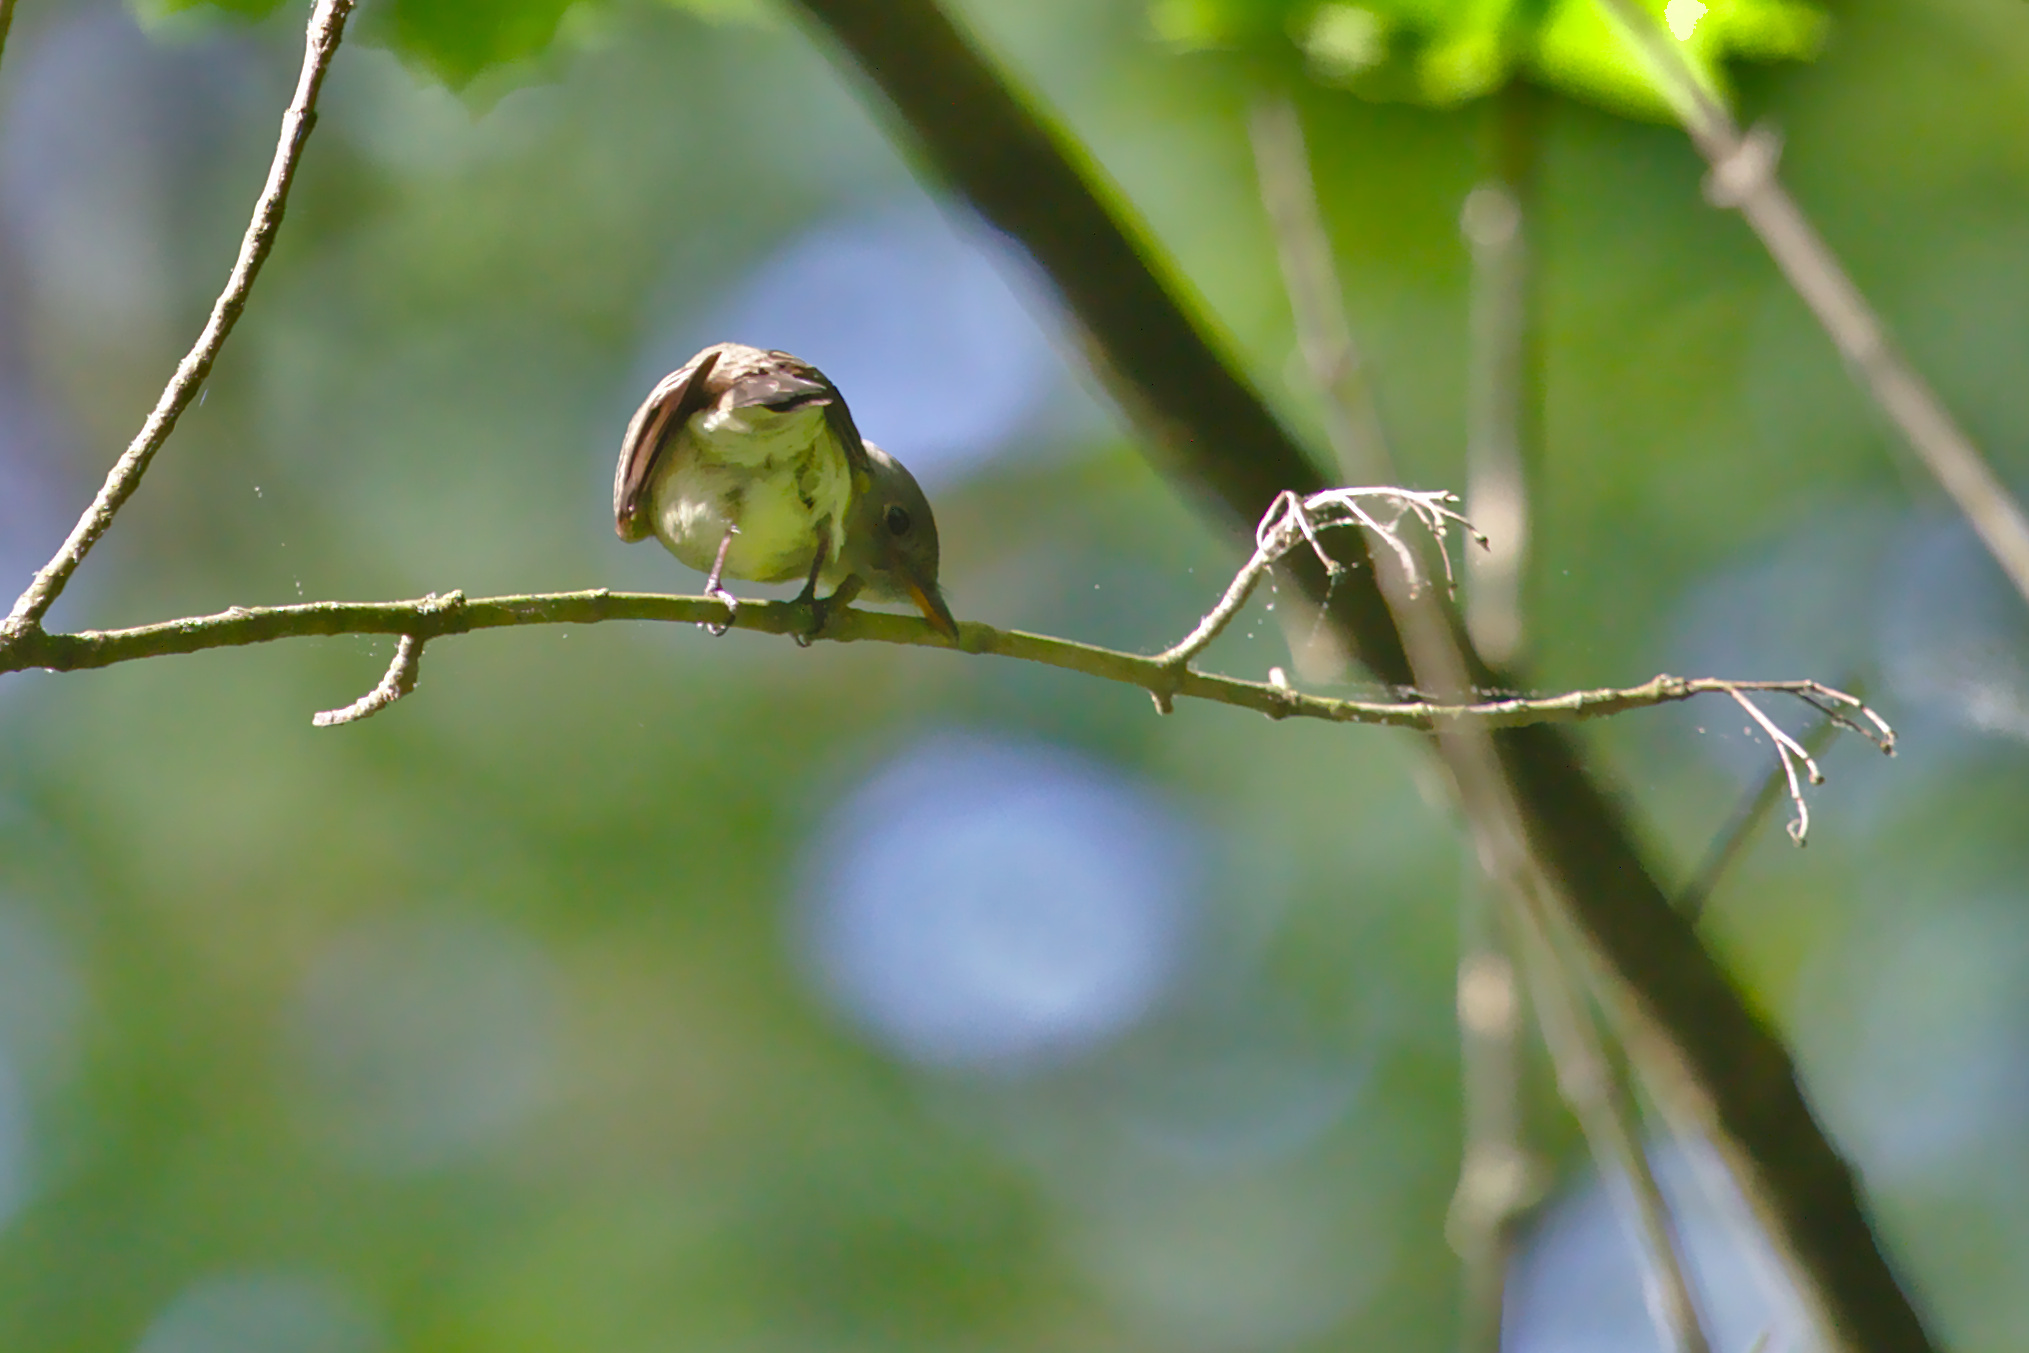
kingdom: Animalia
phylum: Chordata
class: Aves
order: Passeriformes
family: Tyrannidae
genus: Myiarchus
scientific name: Myiarchus crinitus
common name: Great crested flycatcher
